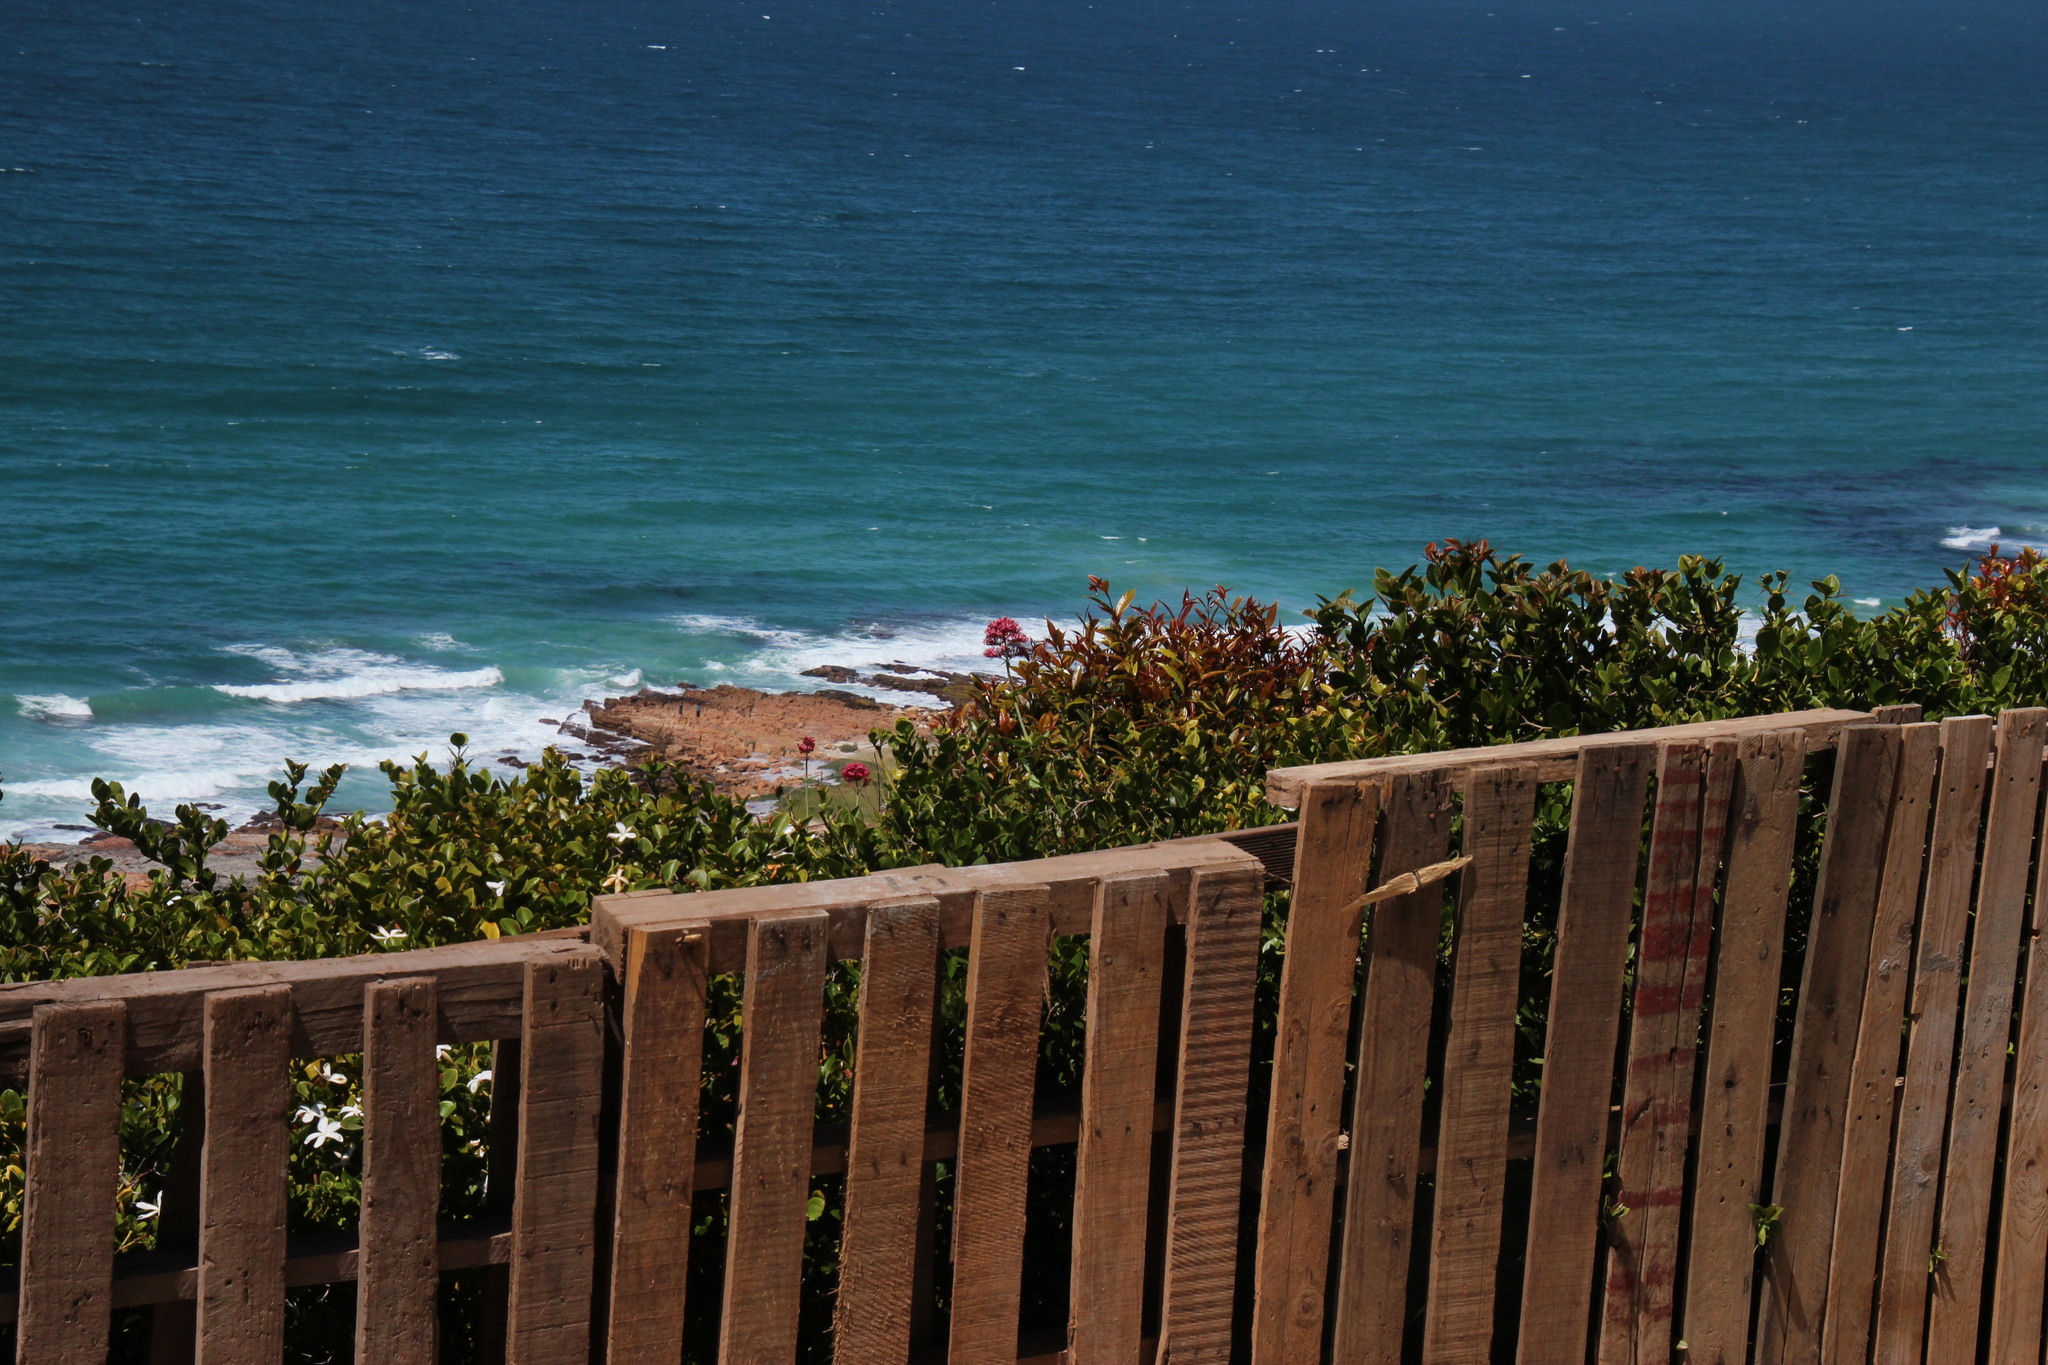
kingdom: Plantae
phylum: Tracheophyta
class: Magnoliopsida
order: Dipsacales
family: Caprifoliaceae
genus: Centranthus
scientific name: Centranthus ruber
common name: Red valerian
